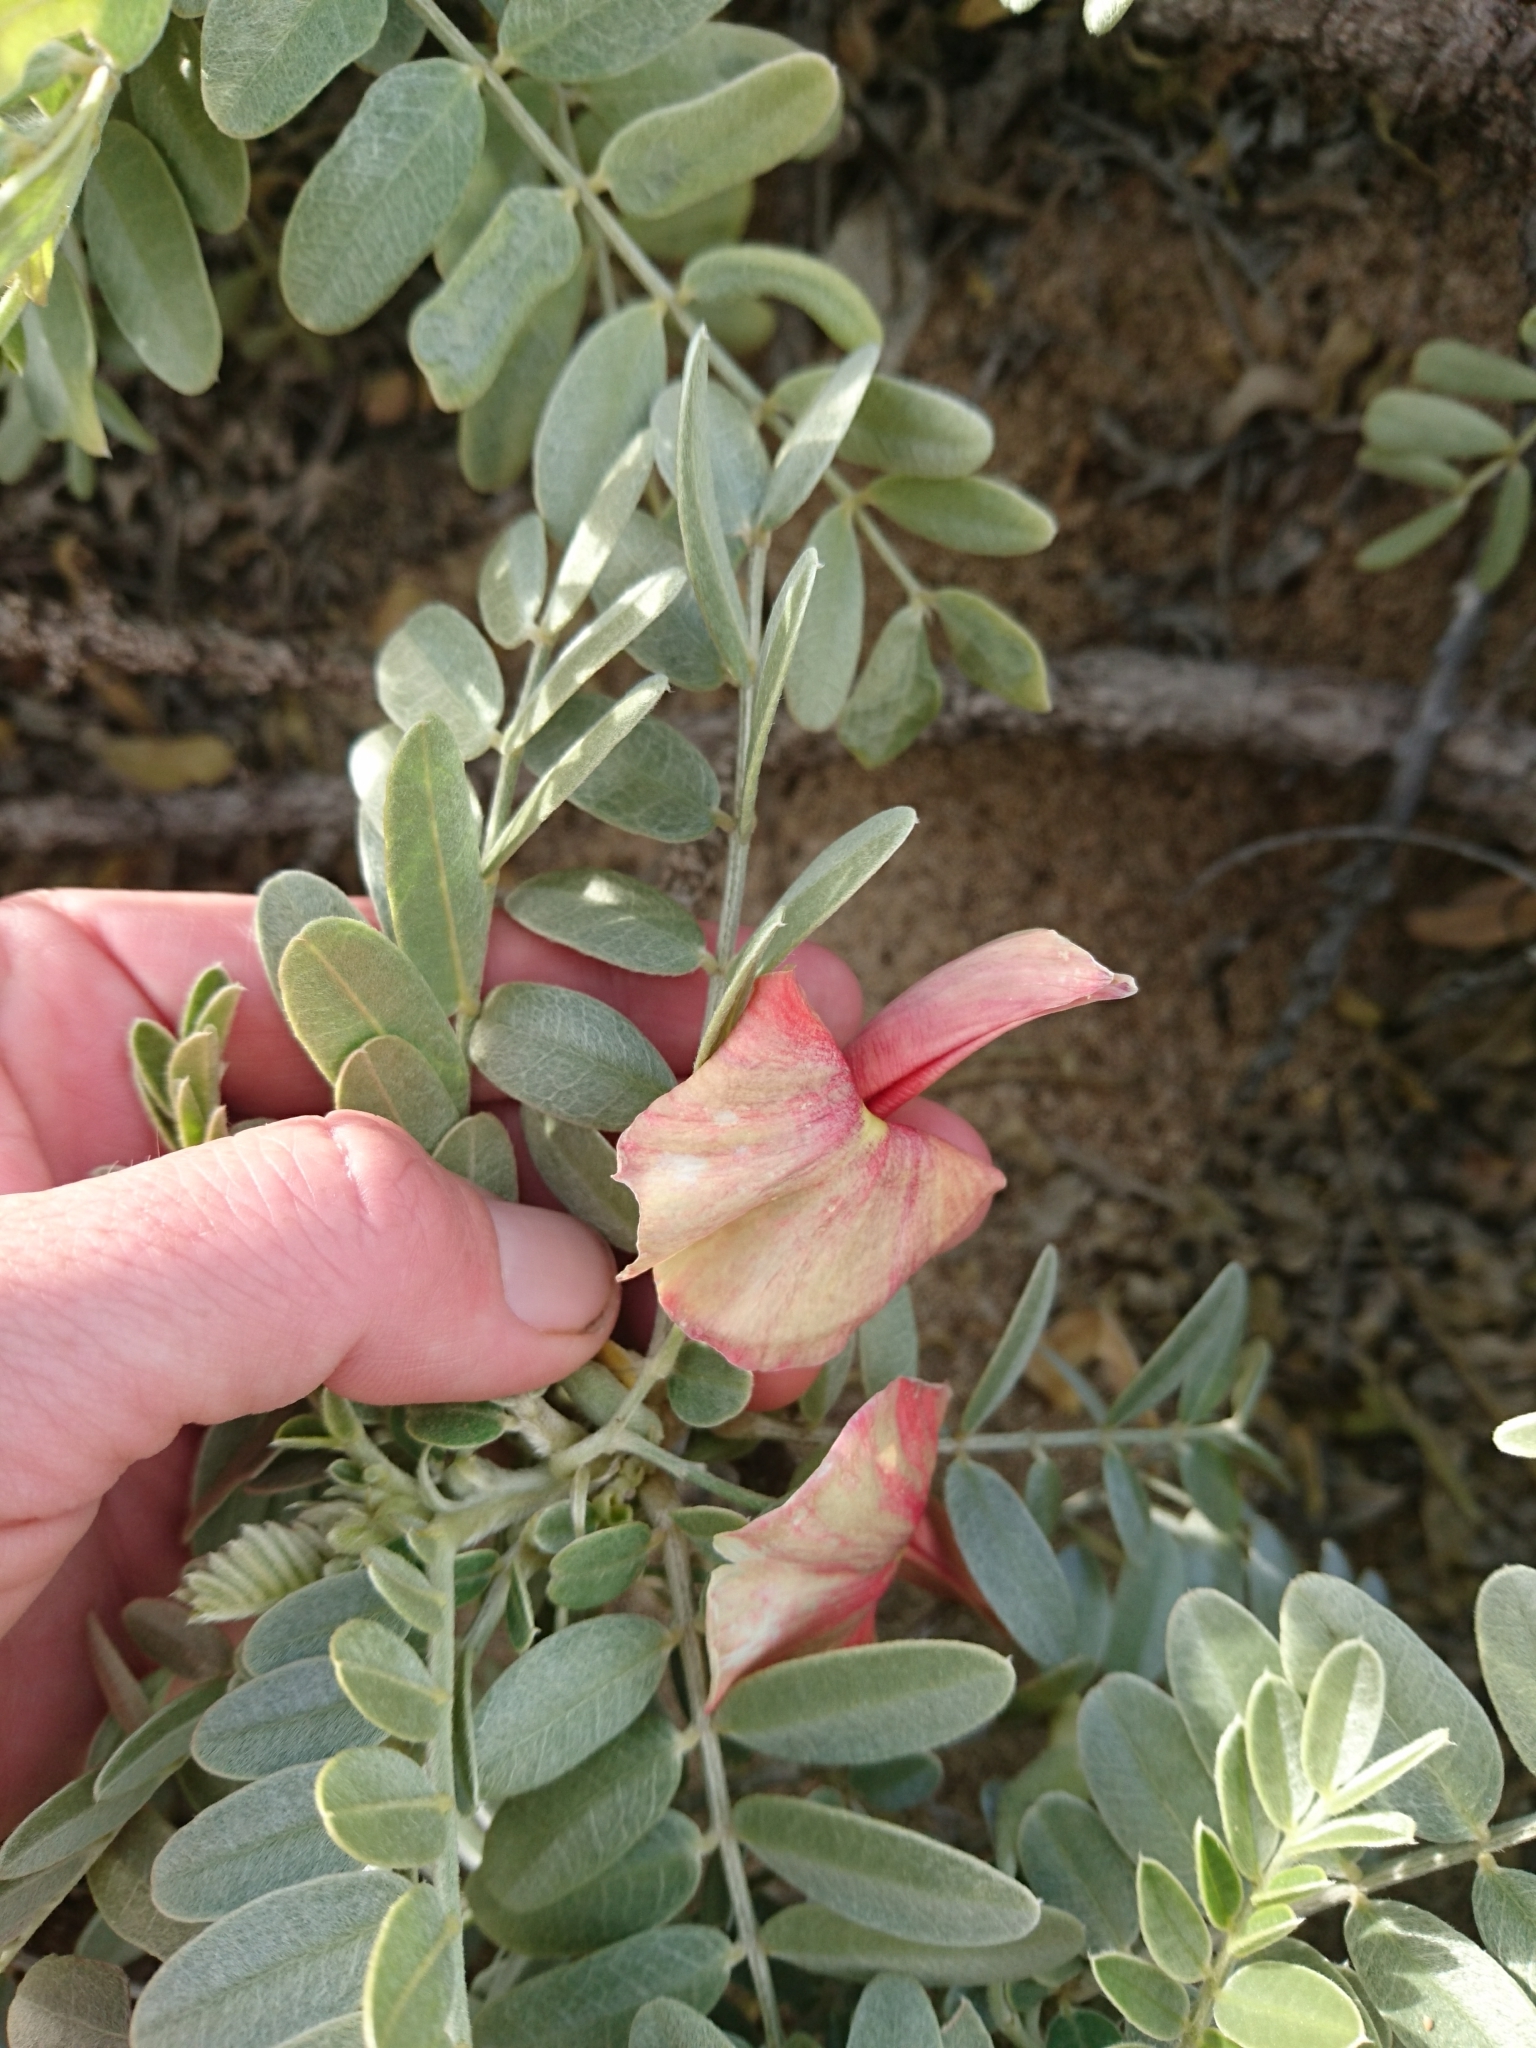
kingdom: Plantae
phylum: Tracheophyta
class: Magnoliopsida
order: Fabales
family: Fabaceae
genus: Sesbania
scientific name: Sesbania tomentosa
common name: `ohai
